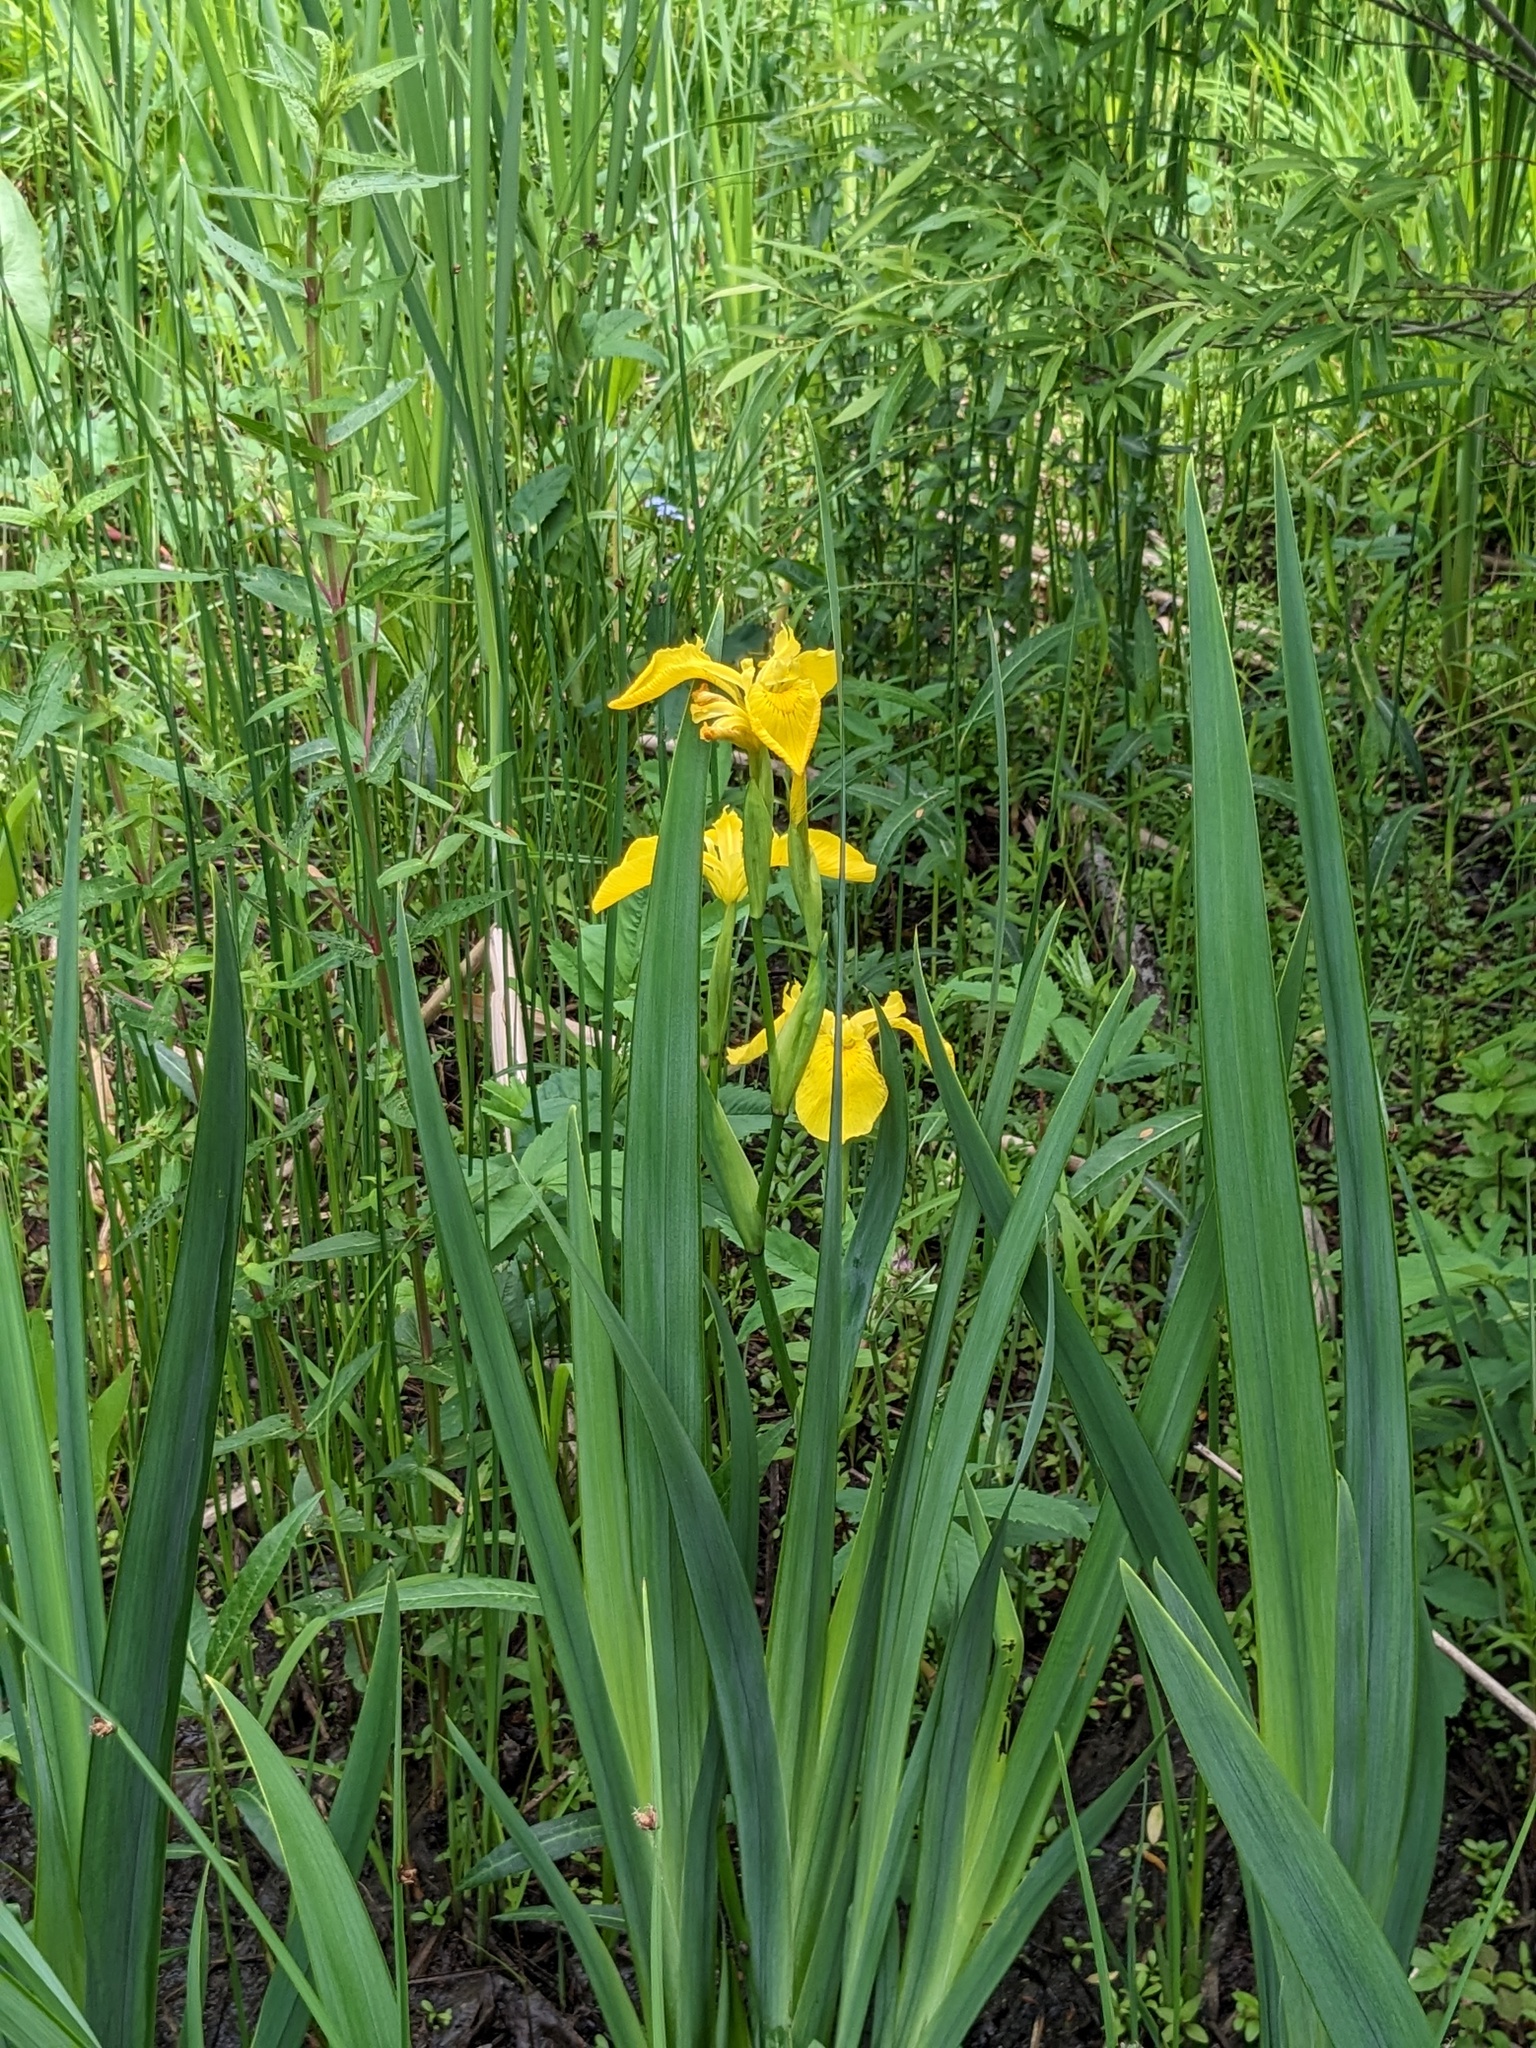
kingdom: Plantae
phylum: Tracheophyta
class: Liliopsida
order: Asparagales
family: Iridaceae
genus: Iris
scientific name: Iris pseudacorus
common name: Yellow flag
